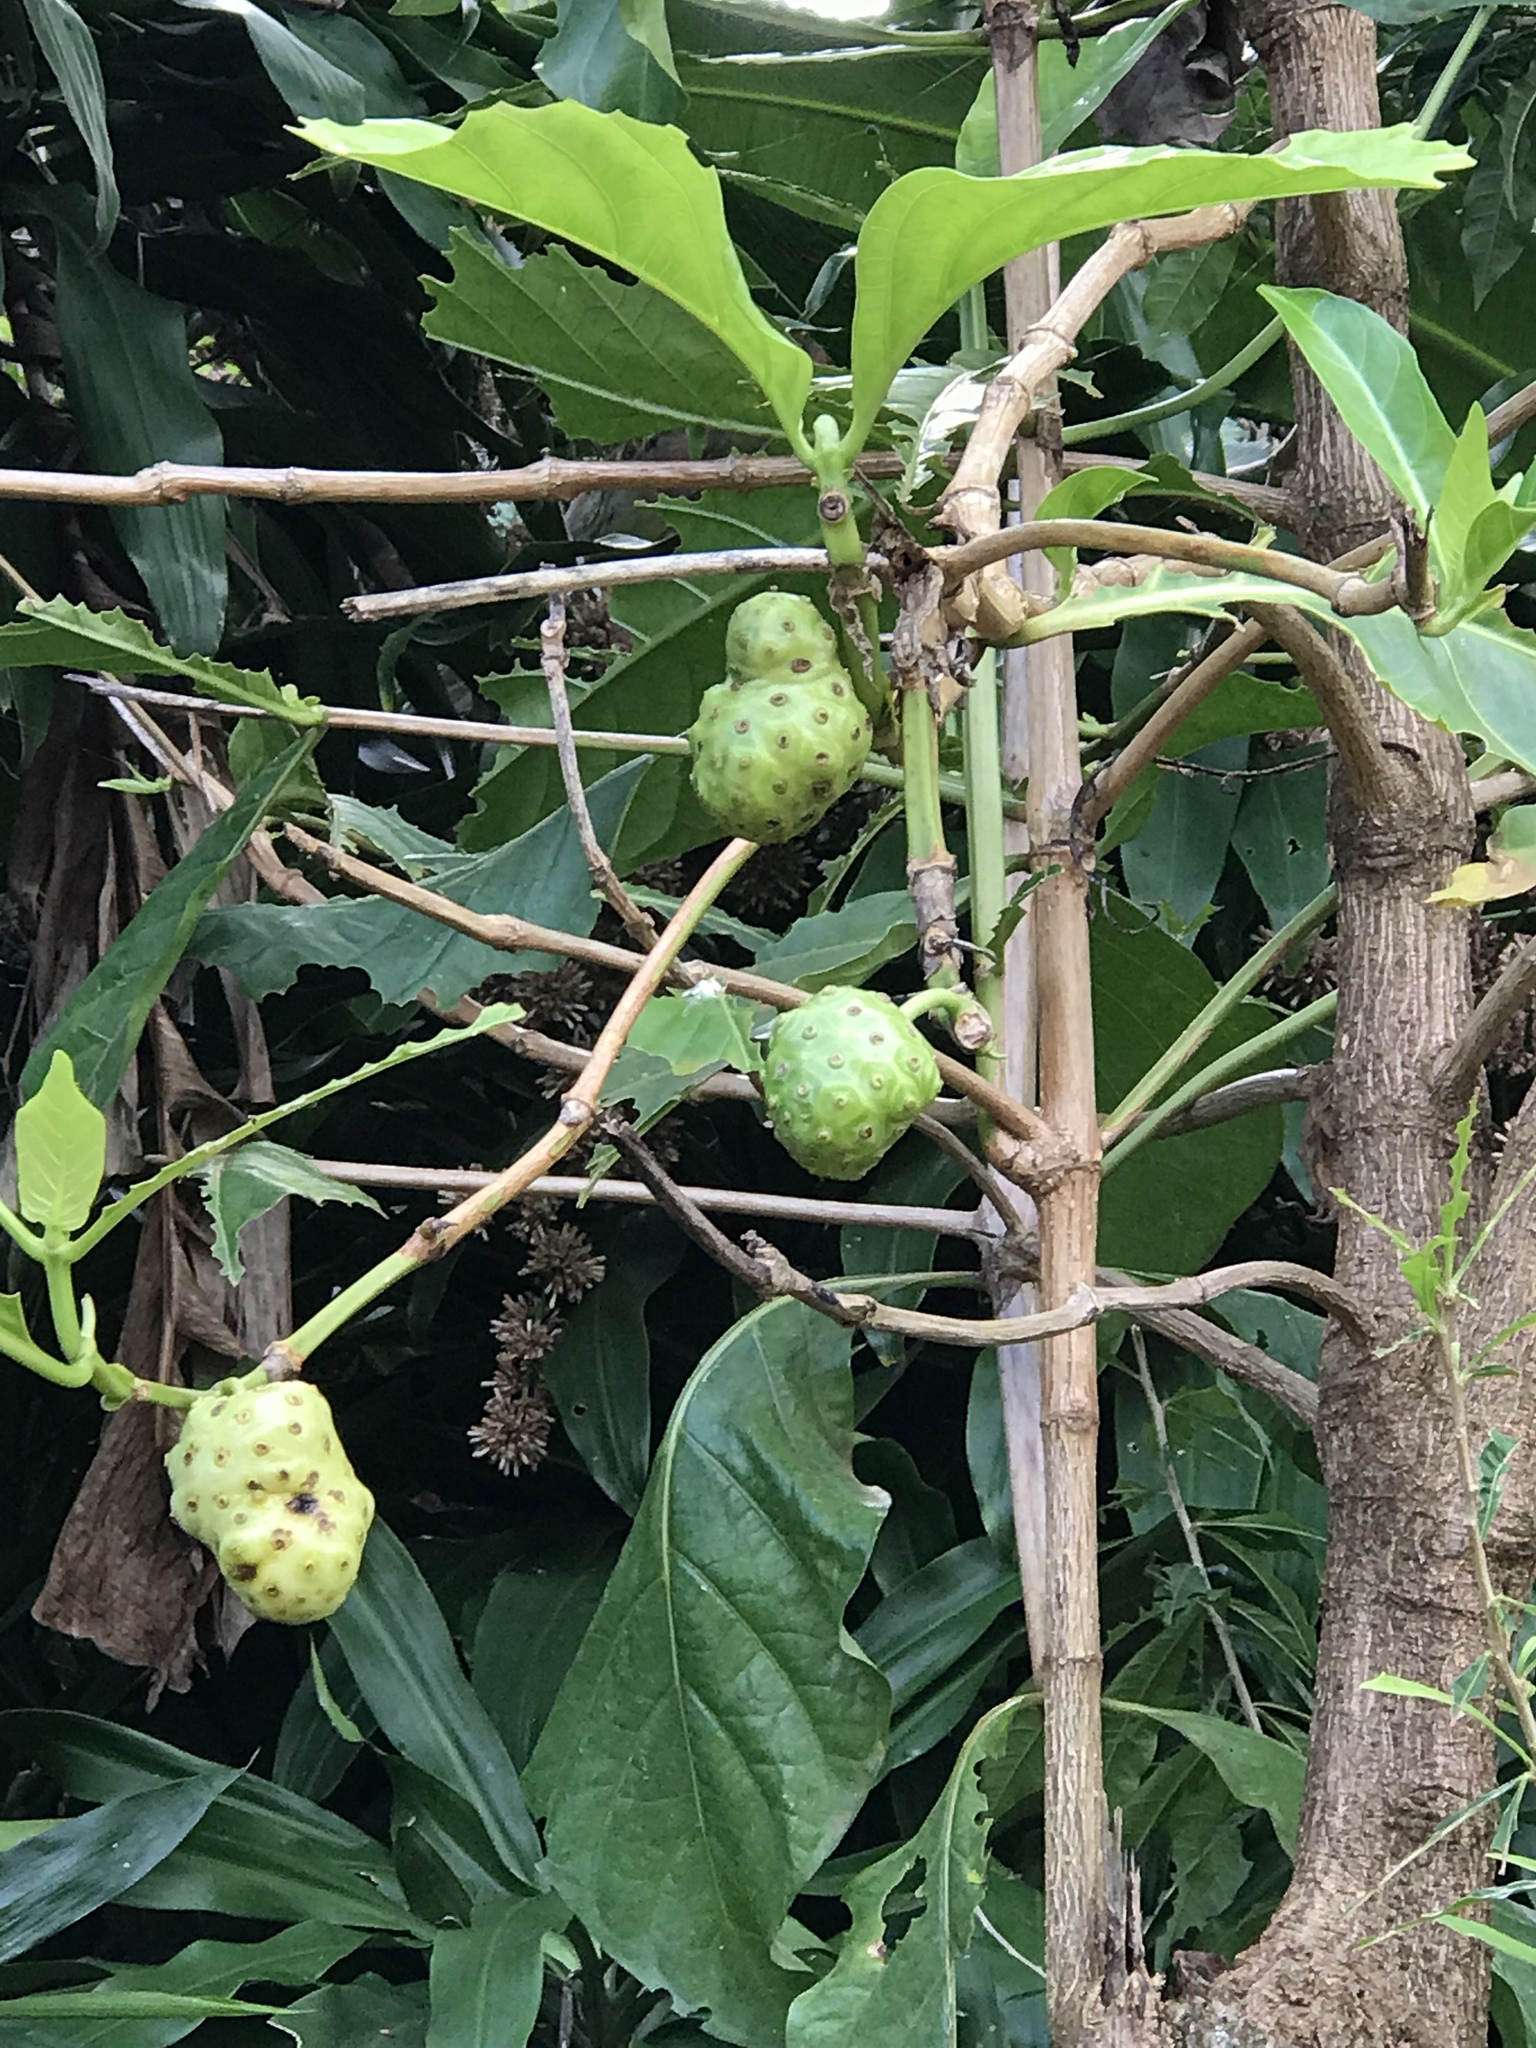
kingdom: Plantae
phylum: Tracheophyta
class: Magnoliopsida
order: Gentianales
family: Rubiaceae
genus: Morinda
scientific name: Morinda citrifolia
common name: Indian-mulberry
